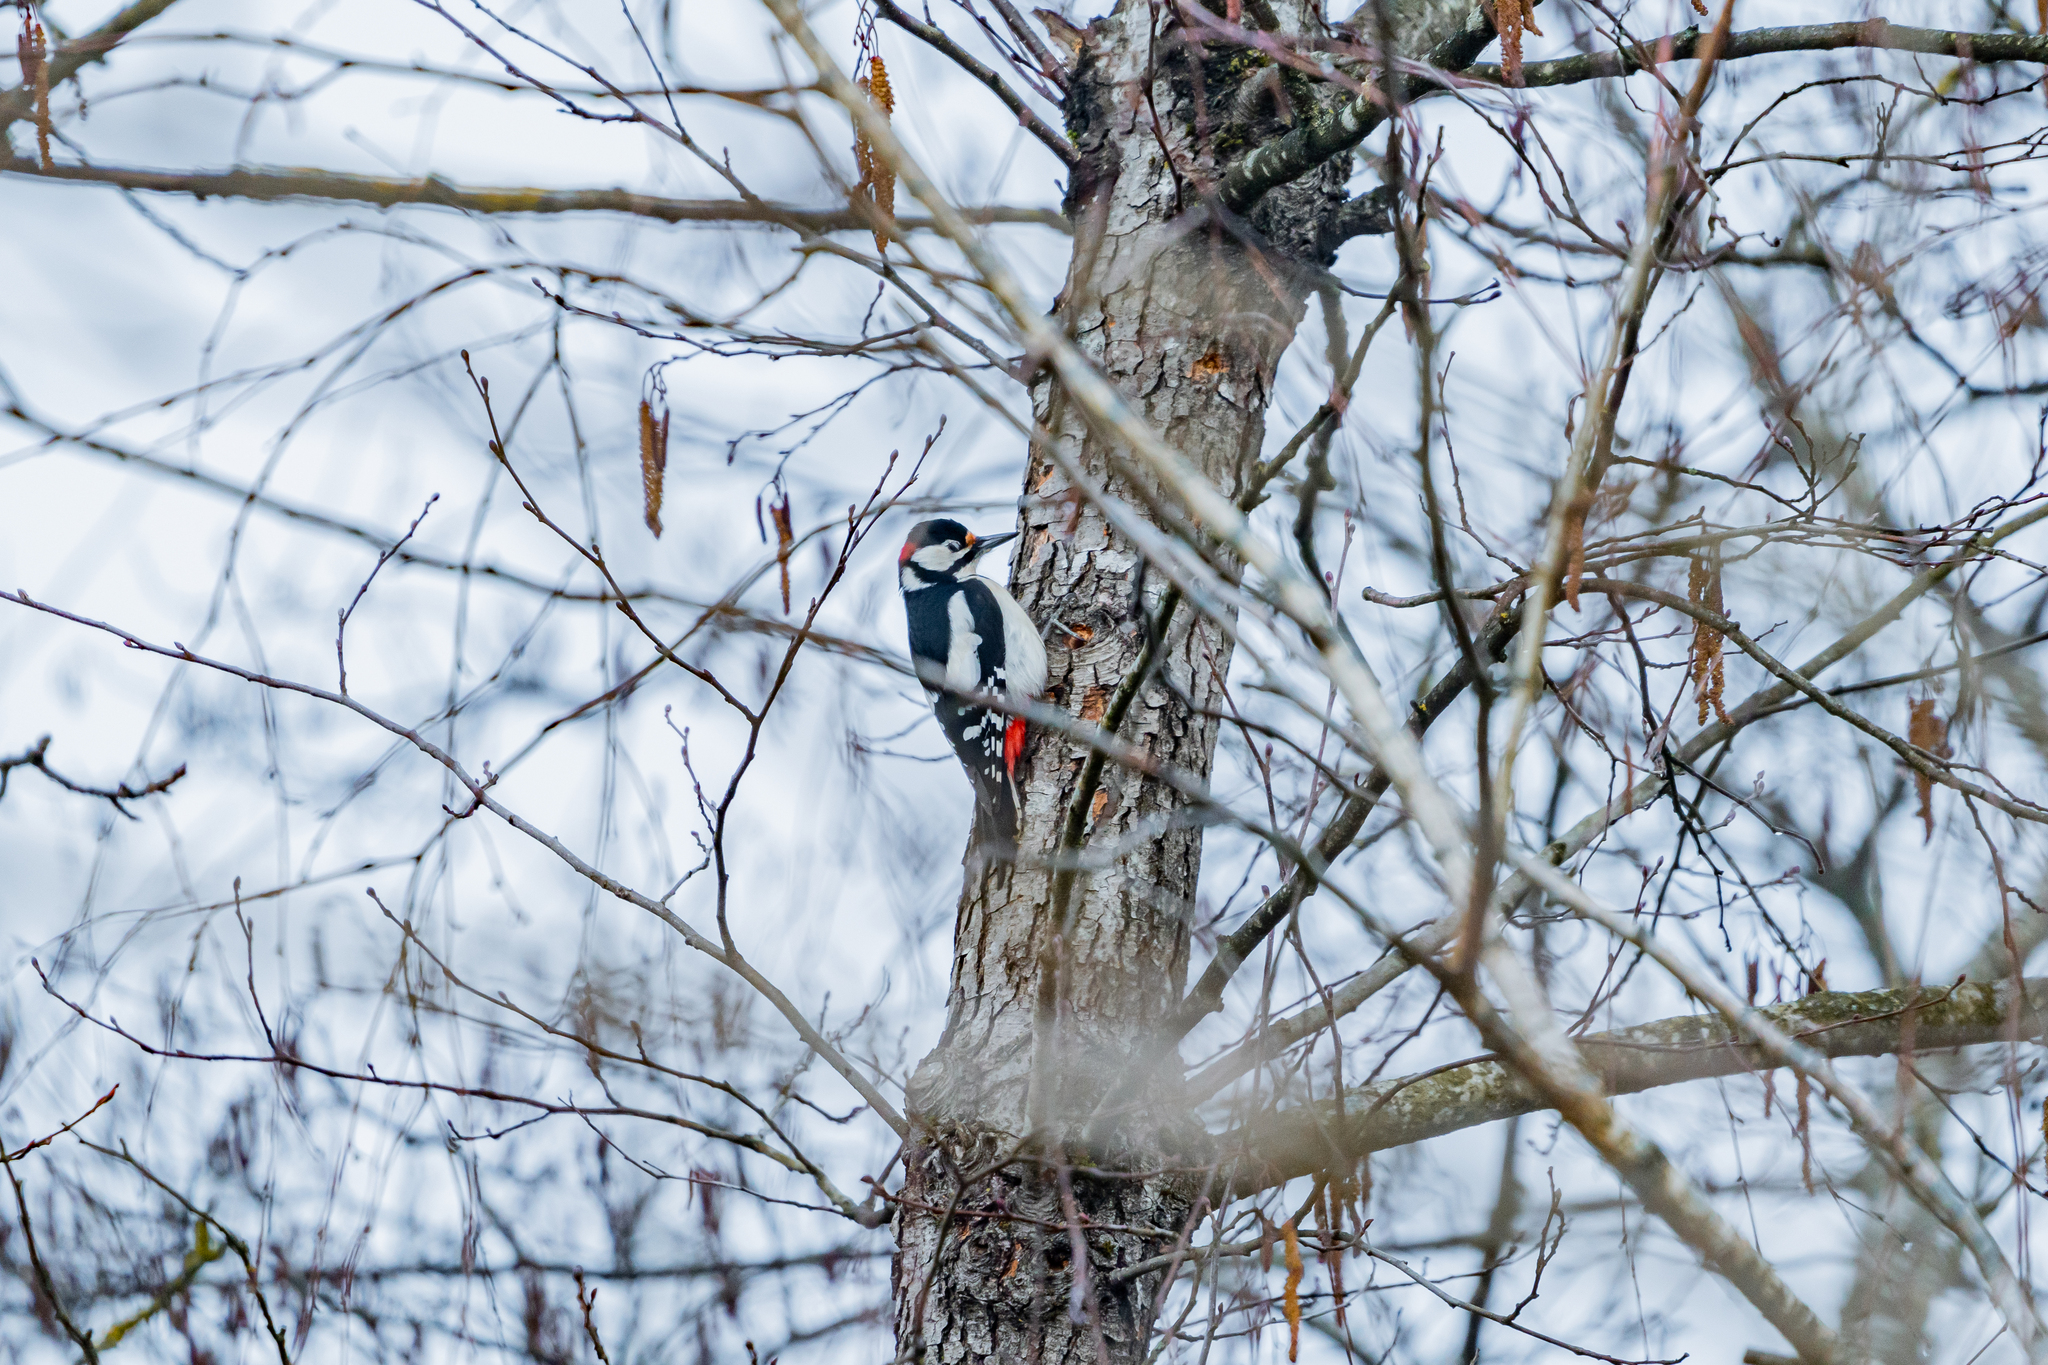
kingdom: Animalia
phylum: Chordata
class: Aves
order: Piciformes
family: Picidae
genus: Dendrocopos
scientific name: Dendrocopos major
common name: Great spotted woodpecker
